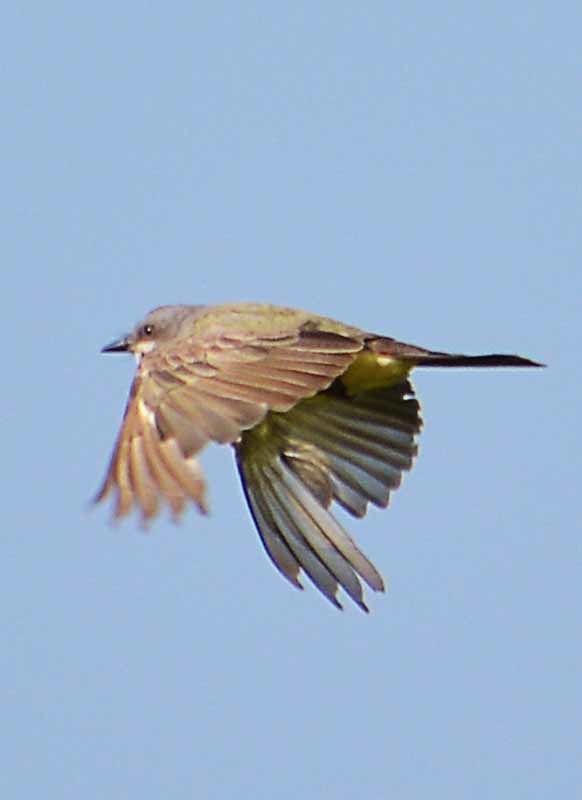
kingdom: Animalia
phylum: Chordata
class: Aves
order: Passeriformes
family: Tyrannidae
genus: Tyrannus
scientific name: Tyrannus vociferans
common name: Cassin's kingbird
